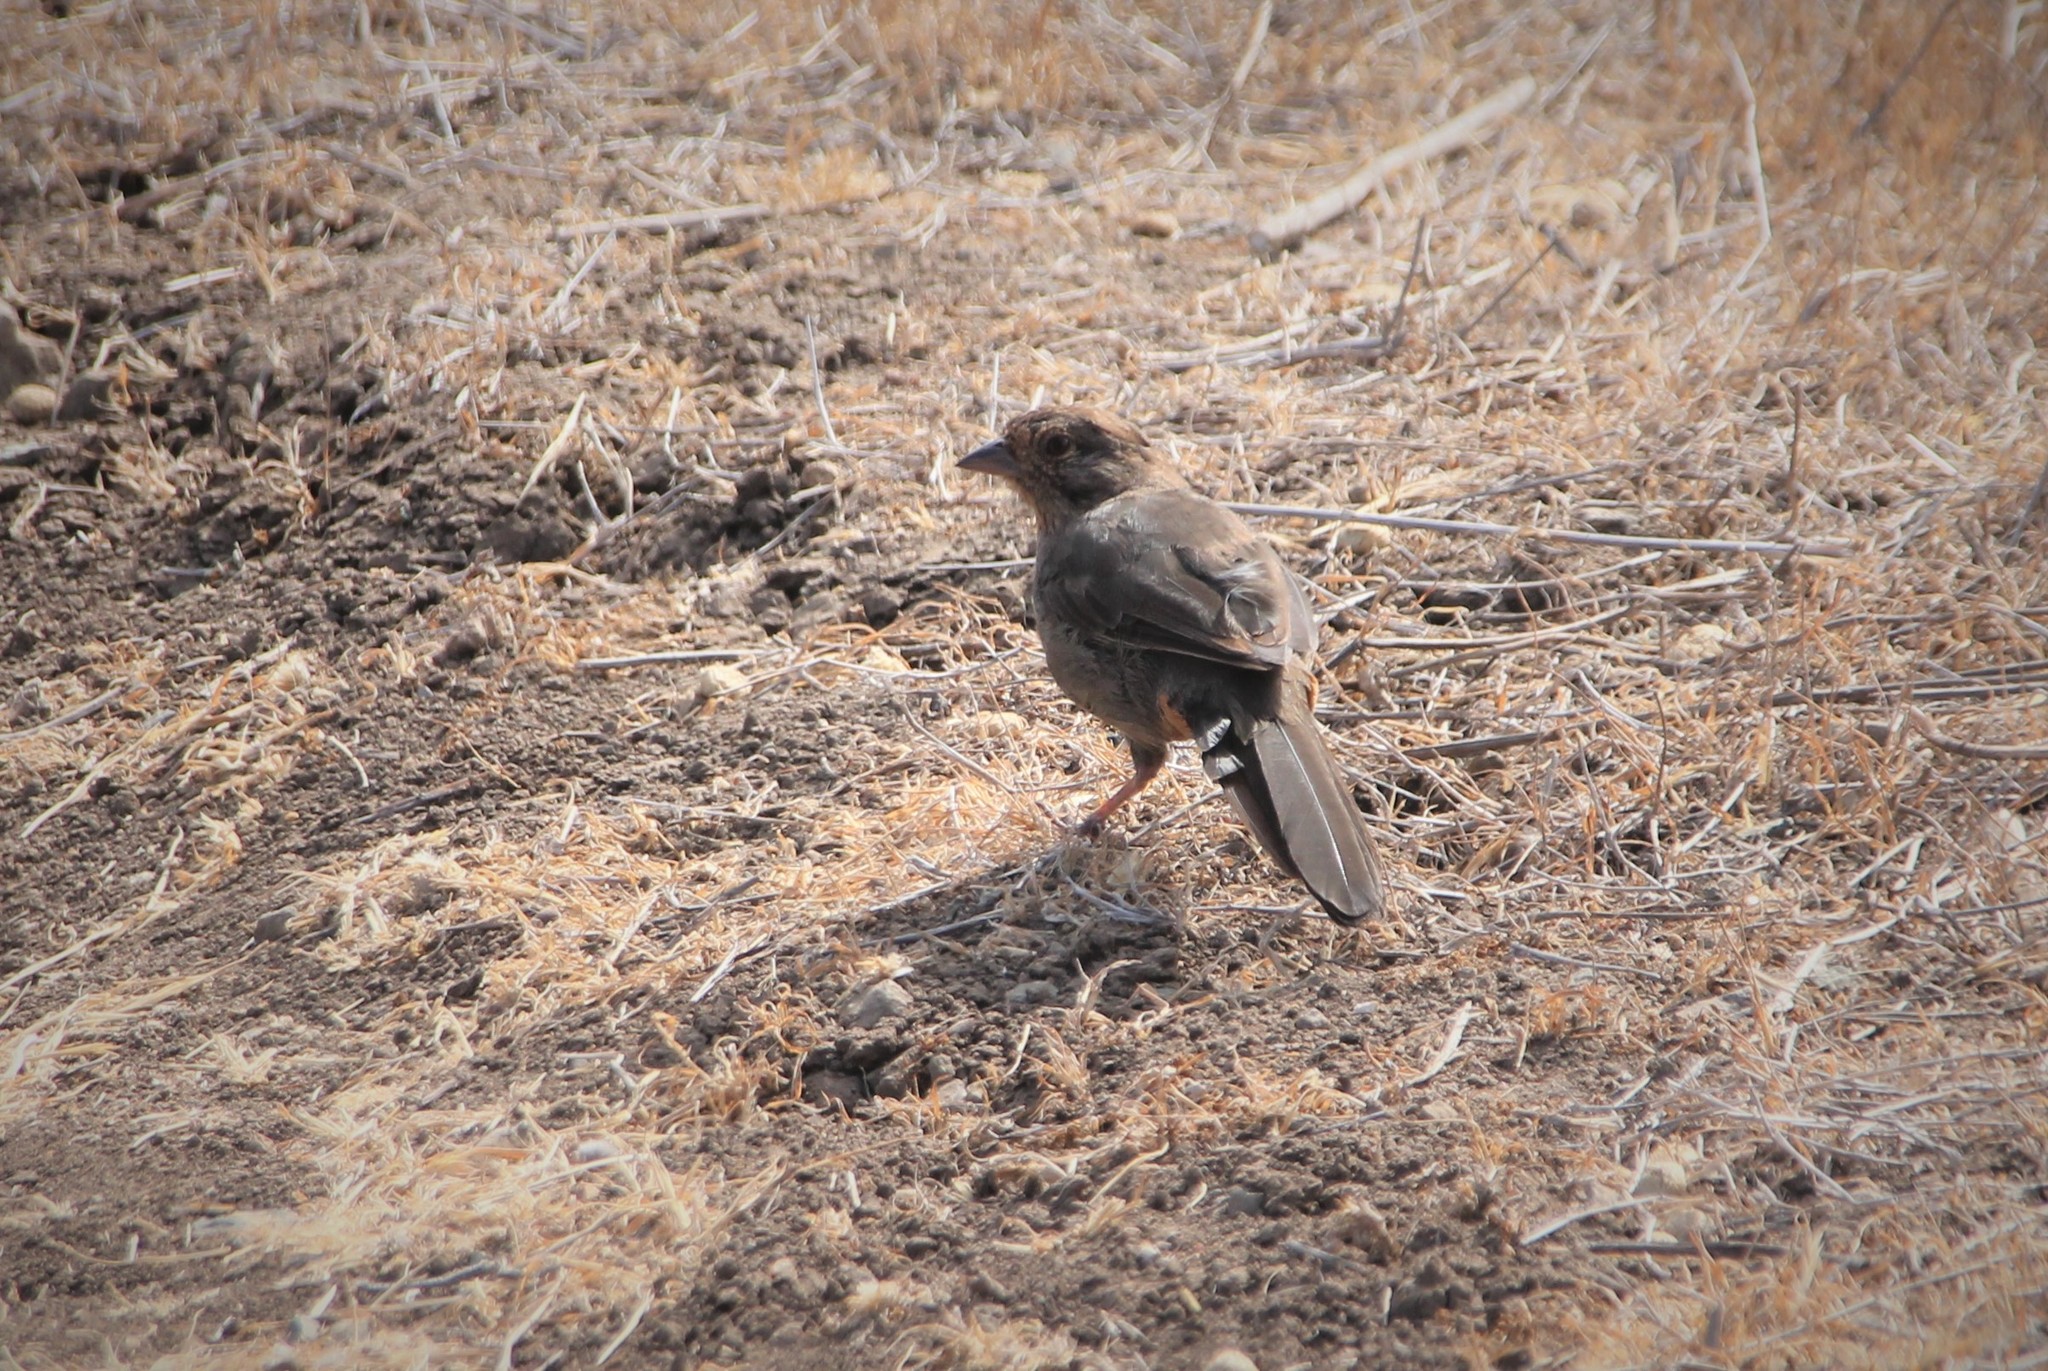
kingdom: Animalia
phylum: Chordata
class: Aves
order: Passeriformes
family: Passerellidae
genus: Melozone
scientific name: Melozone crissalis
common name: California towhee
